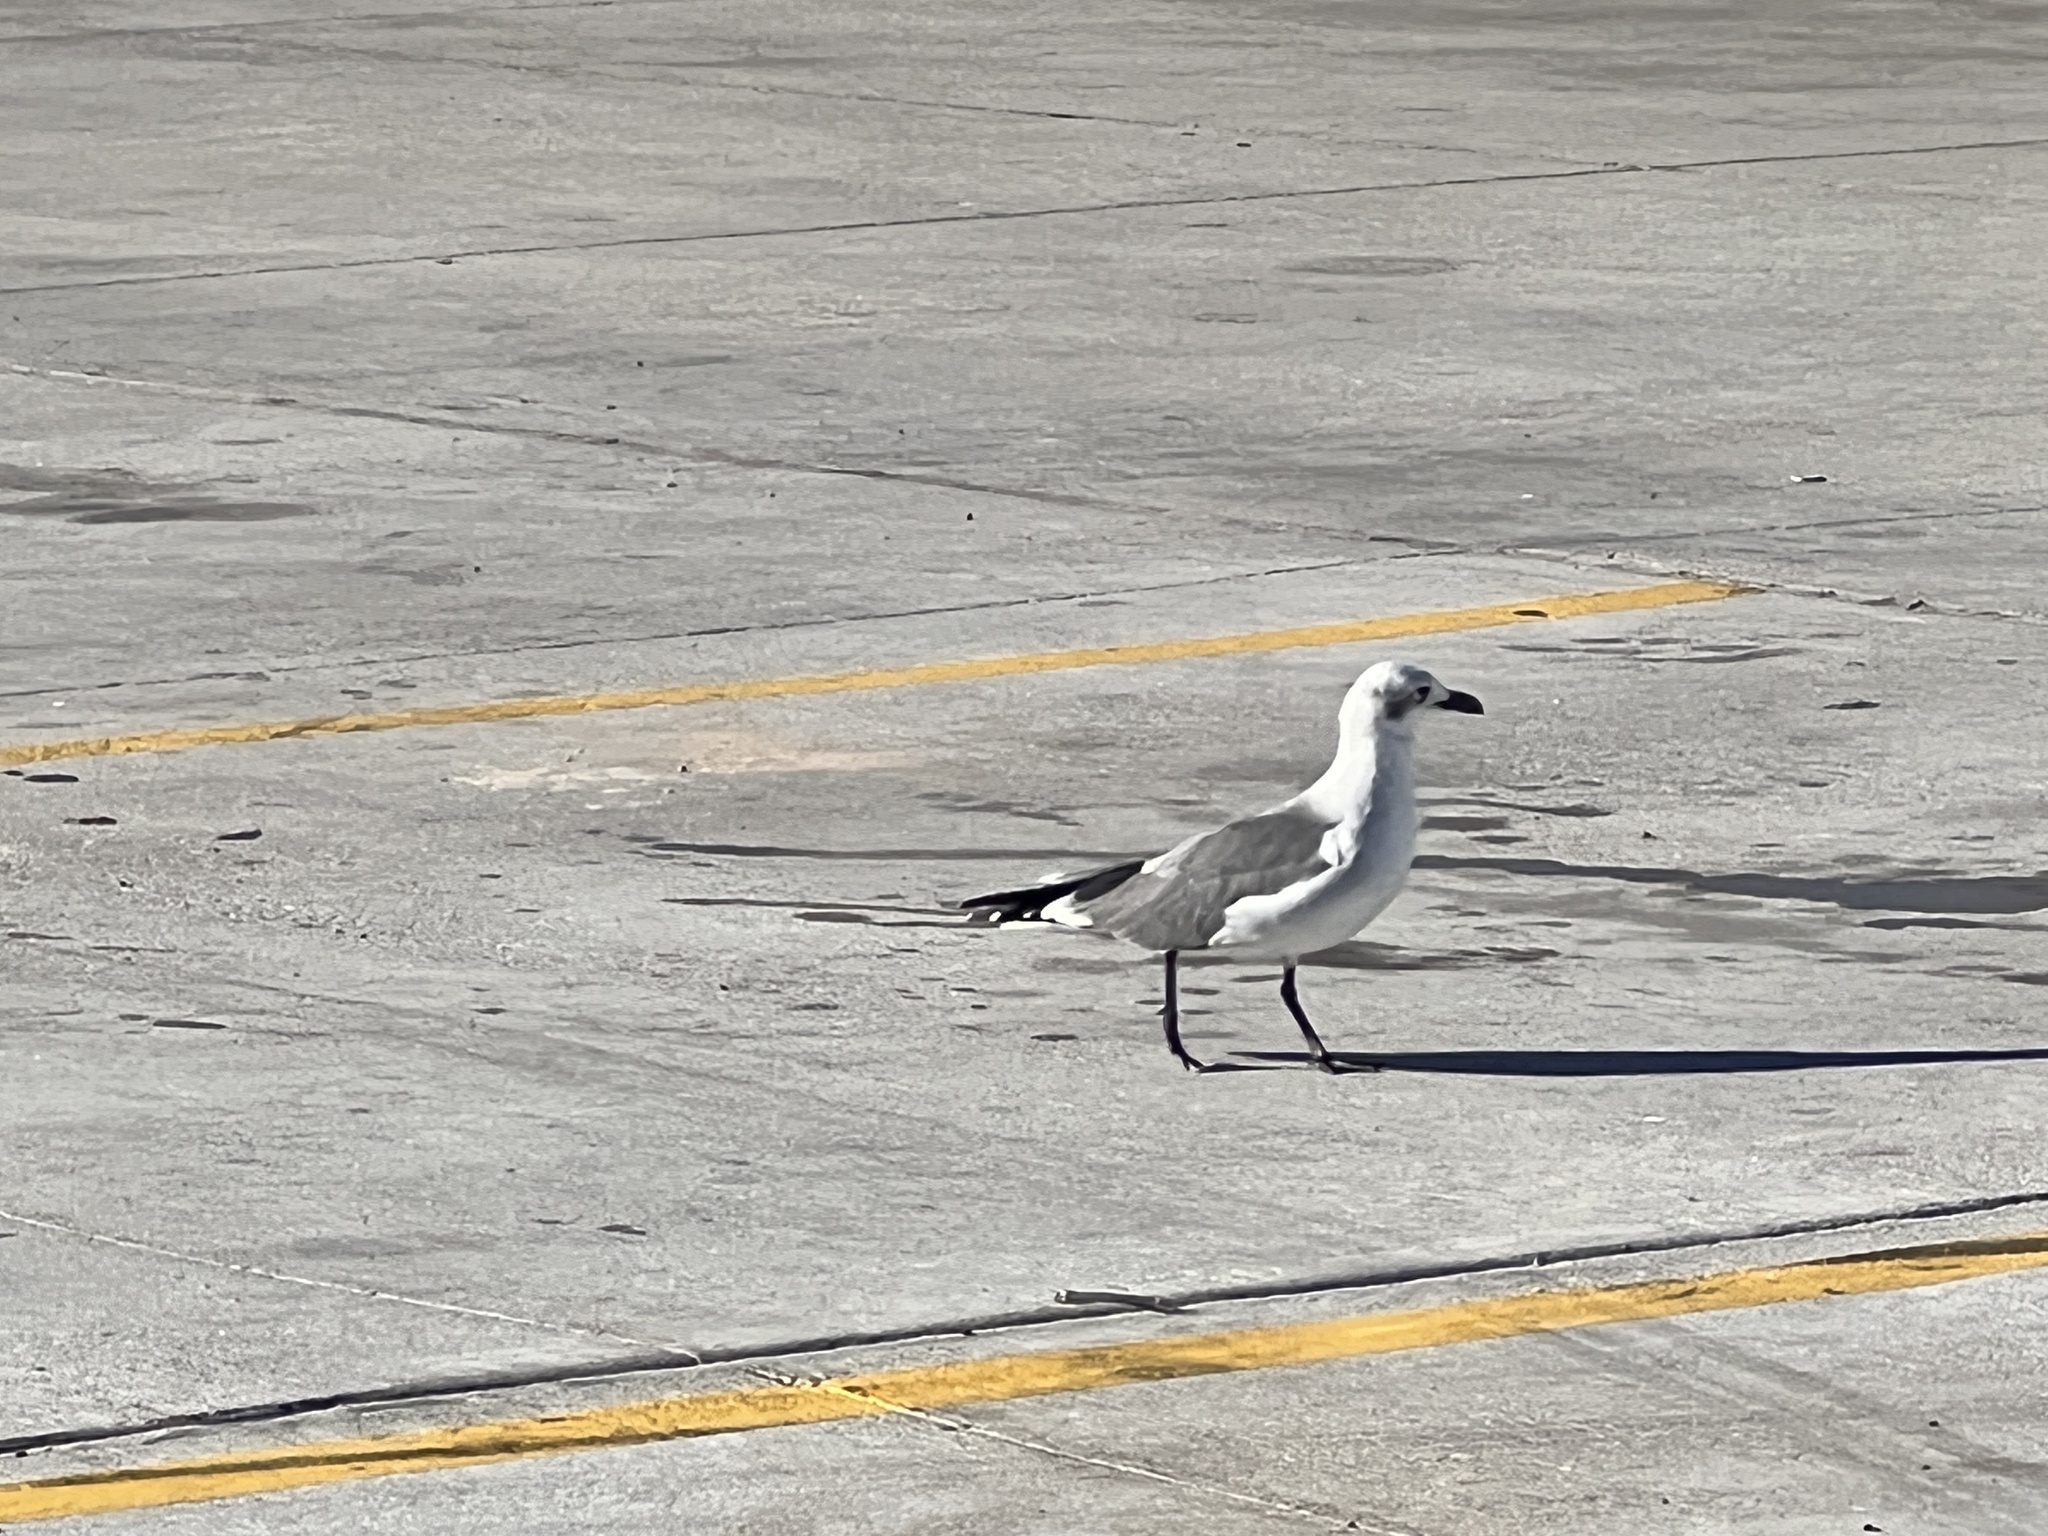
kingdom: Animalia
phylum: Chordata
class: Aves
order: Charadriiformes
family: Laridae
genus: Leucophaeus
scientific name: Leucophaeus atricilla
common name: Laughing gull
